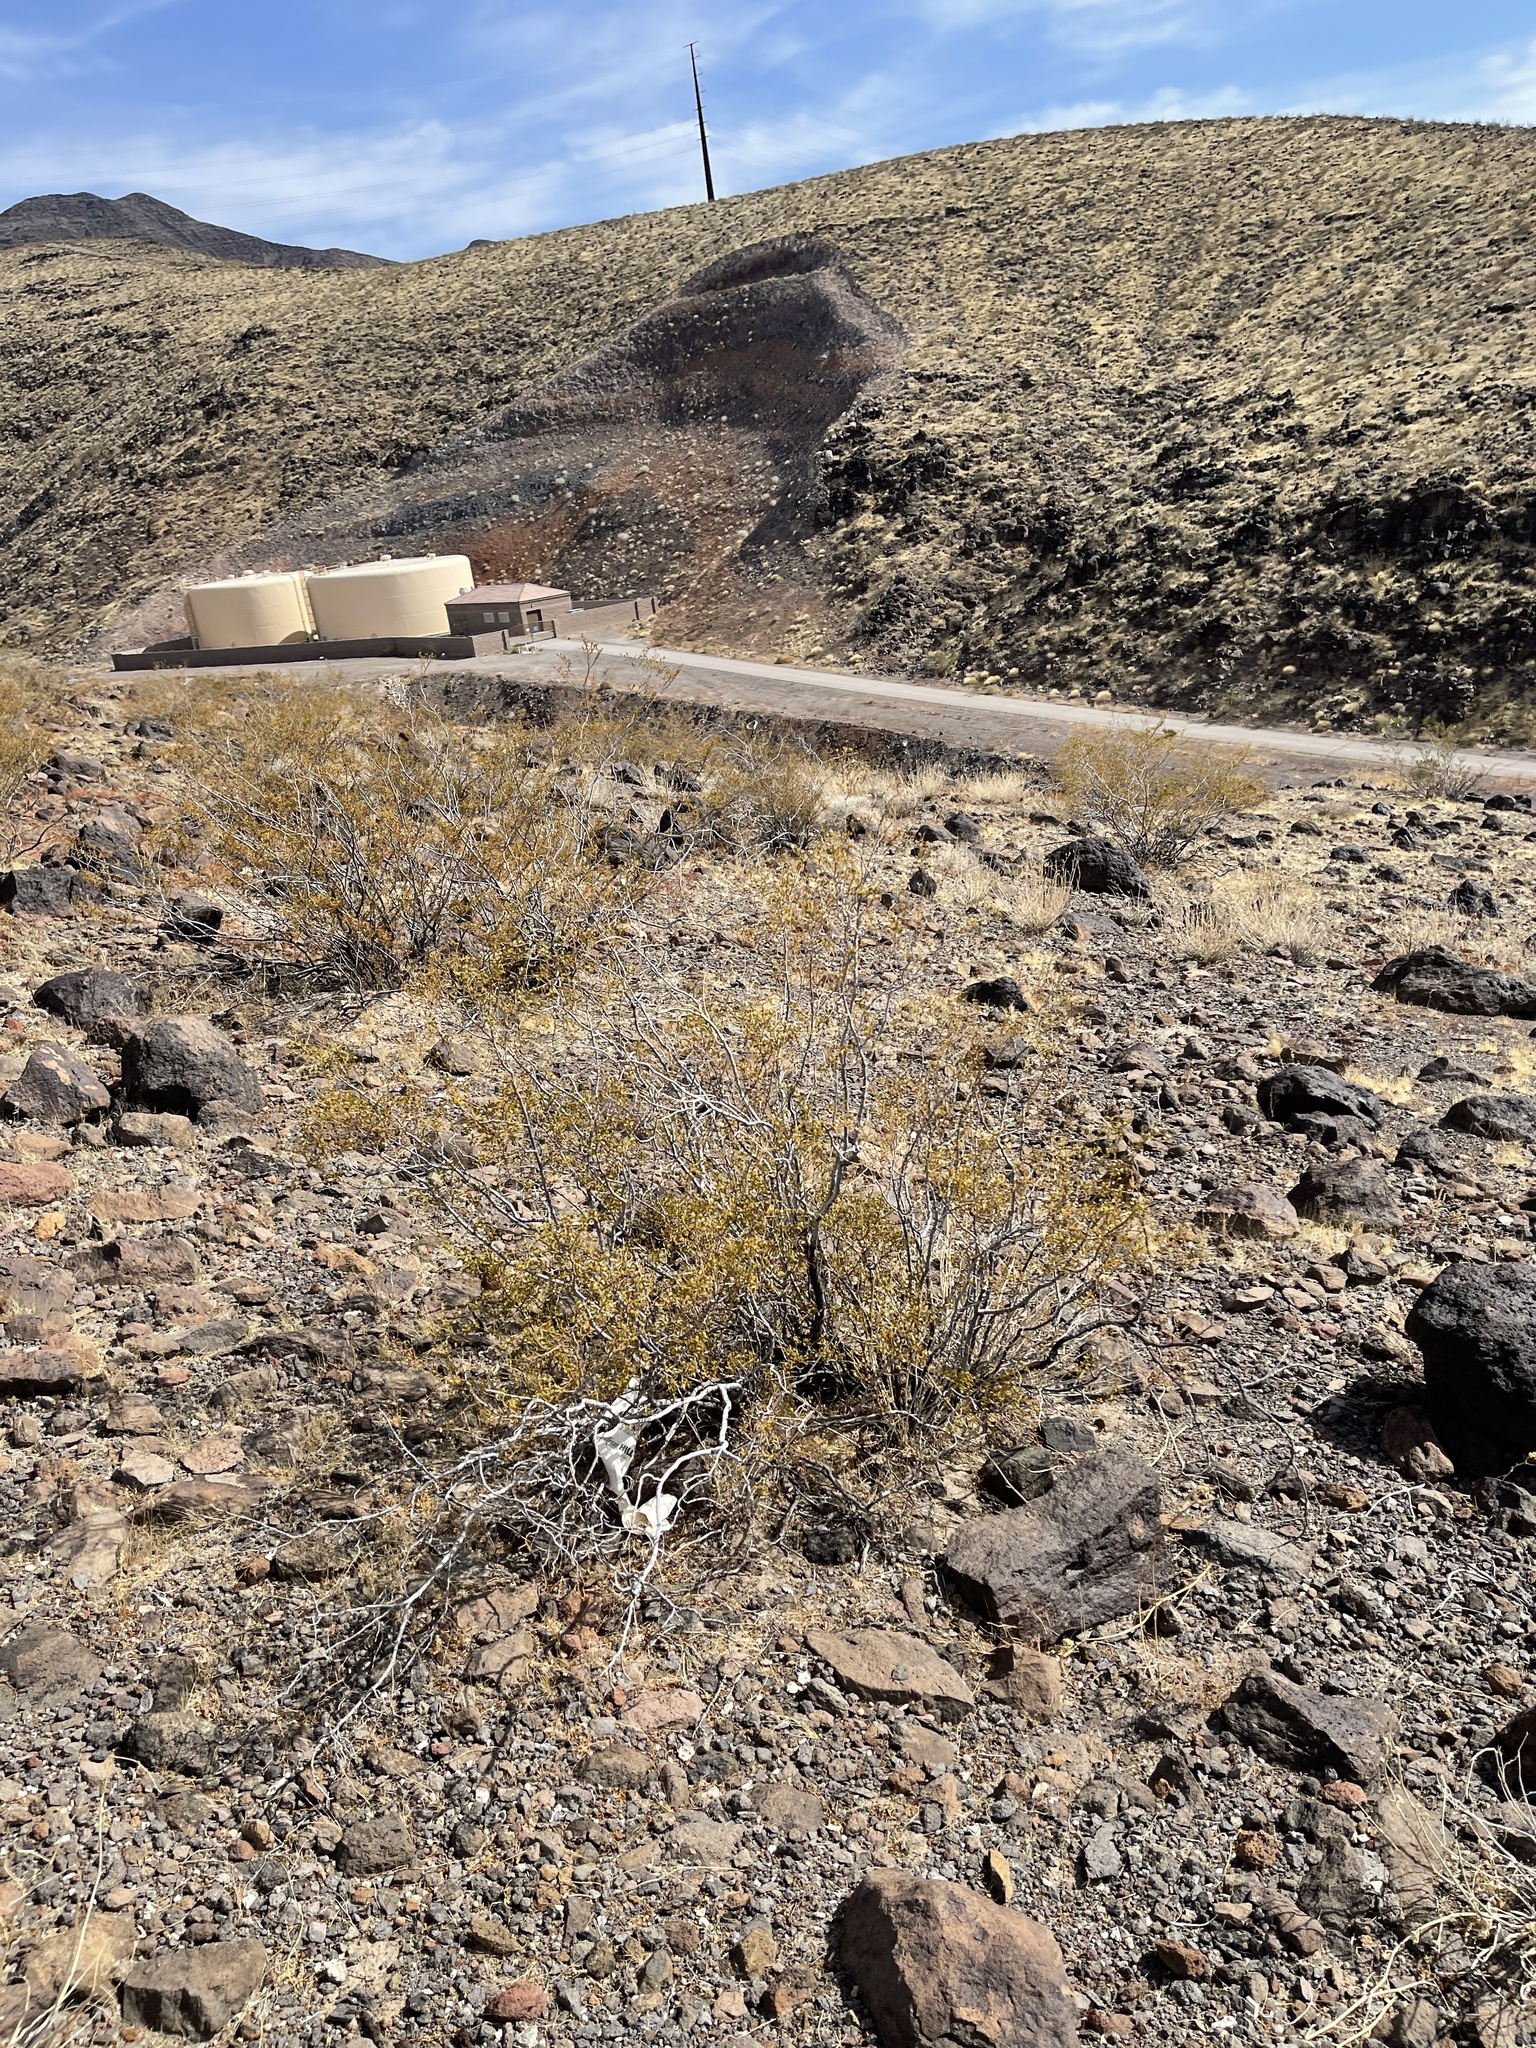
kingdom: Plantae
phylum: Tracheophyta
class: Magnoliopsida
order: Zygophyllales
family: Zygophyllaceae
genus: Larrea
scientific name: Larrea tridentata
